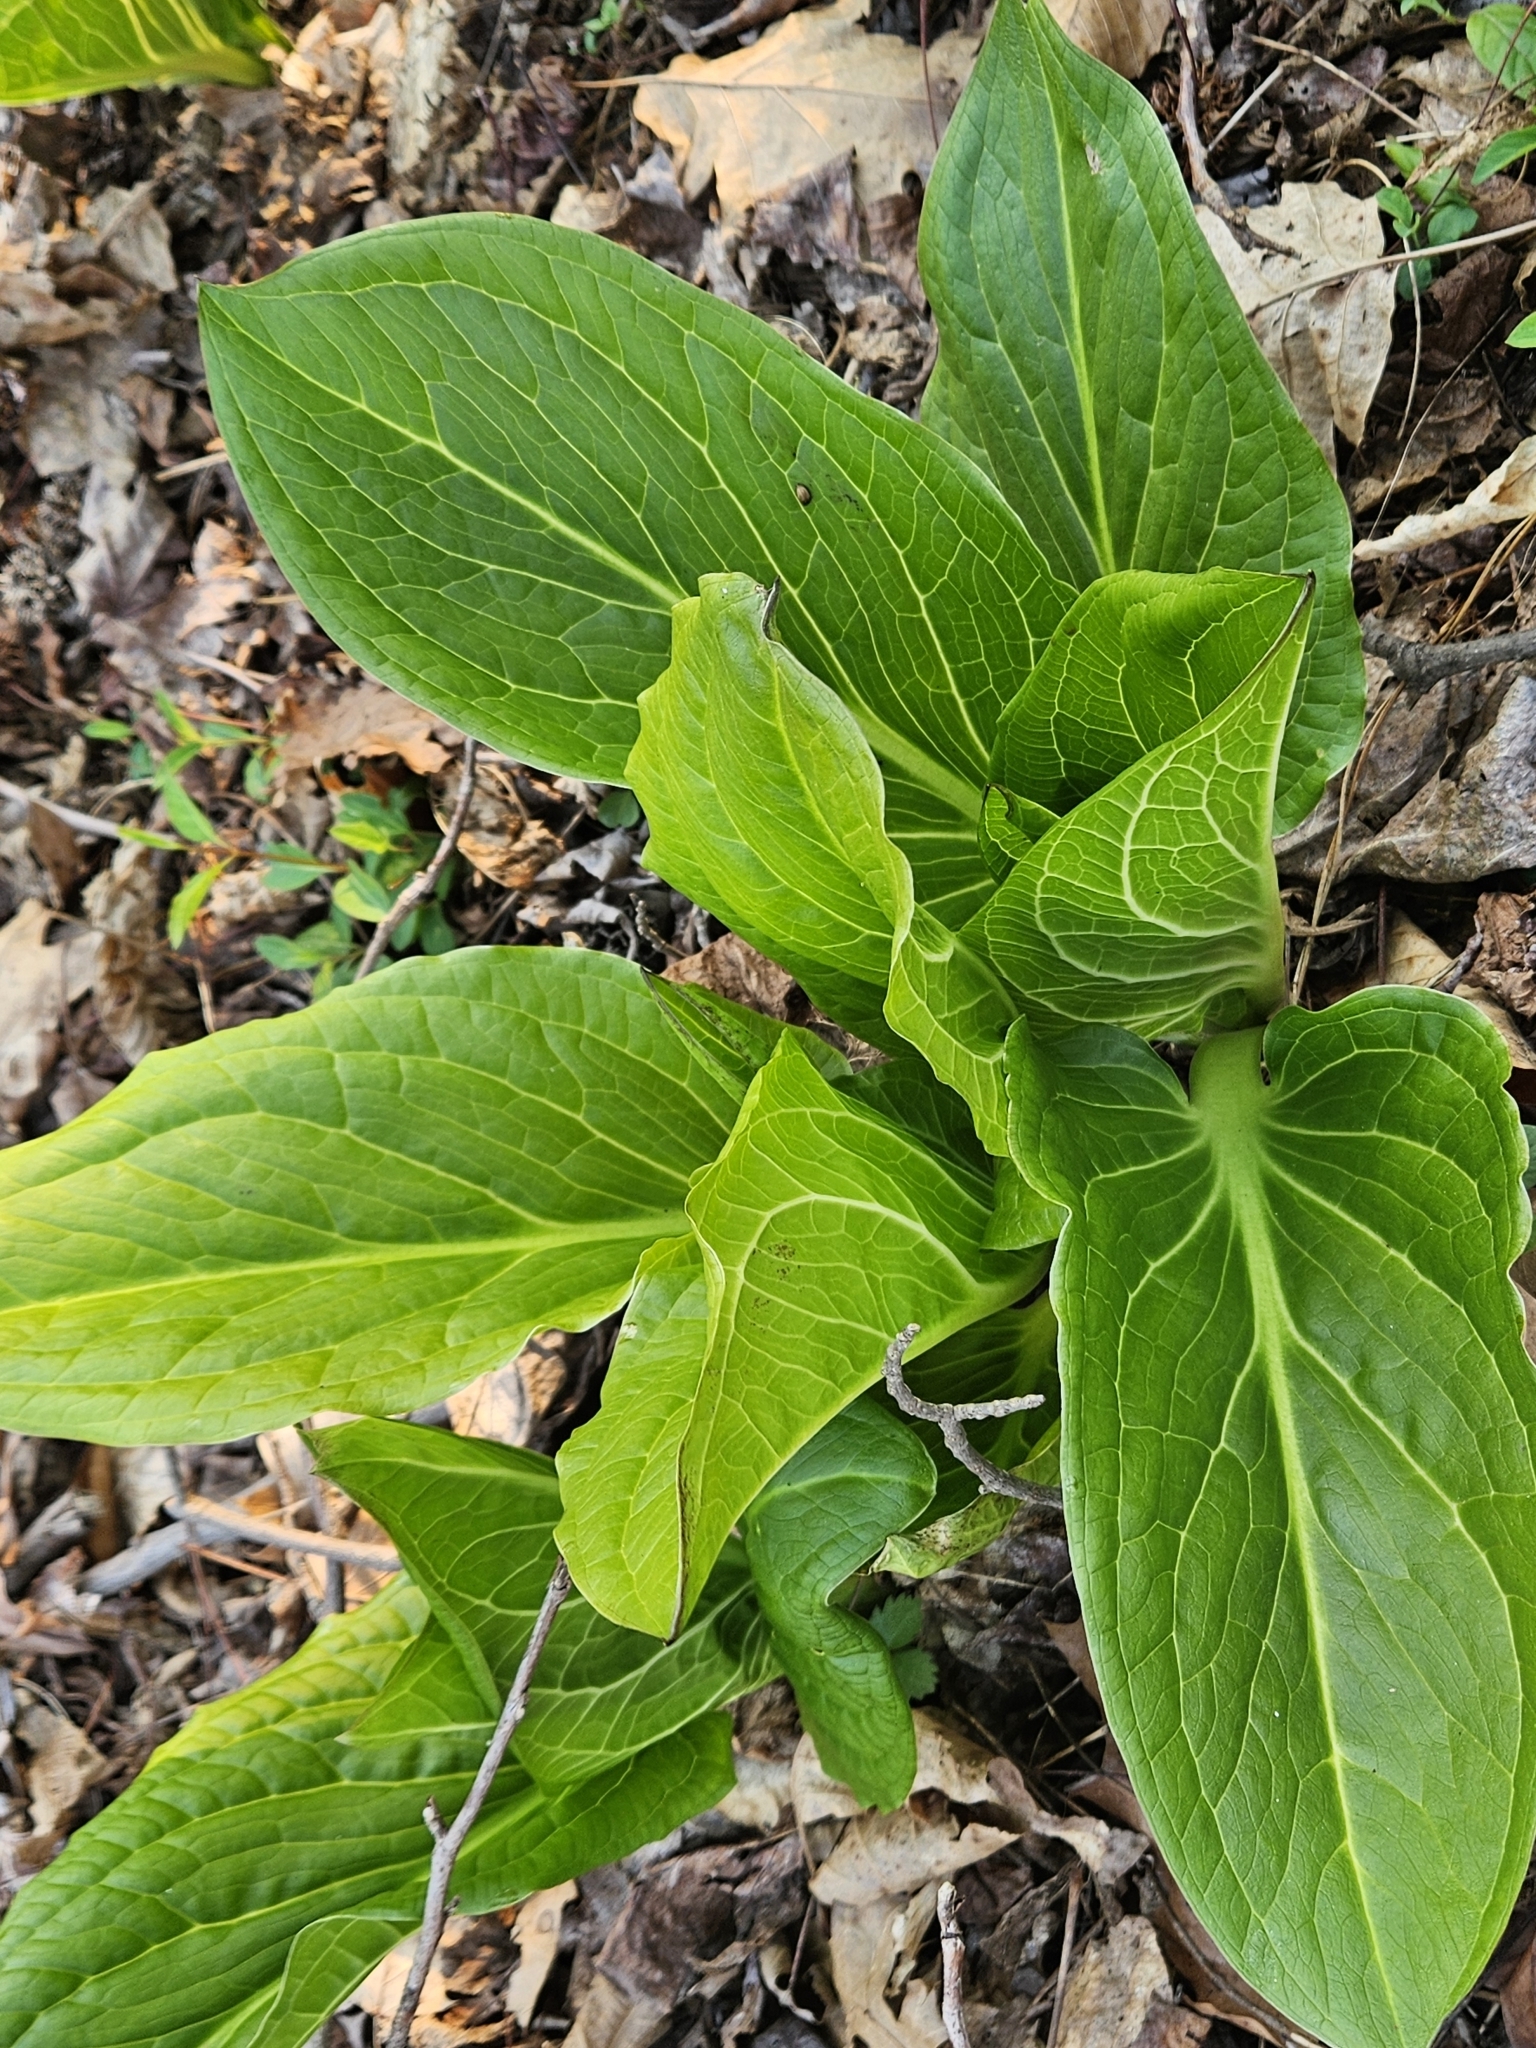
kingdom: Plantae
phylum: Tracheophyta
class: Liliopsida
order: Alismatales
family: Araceae
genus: Symplocarpus
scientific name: Symplocarpus foetidus
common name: Eastern skunk cabbage
